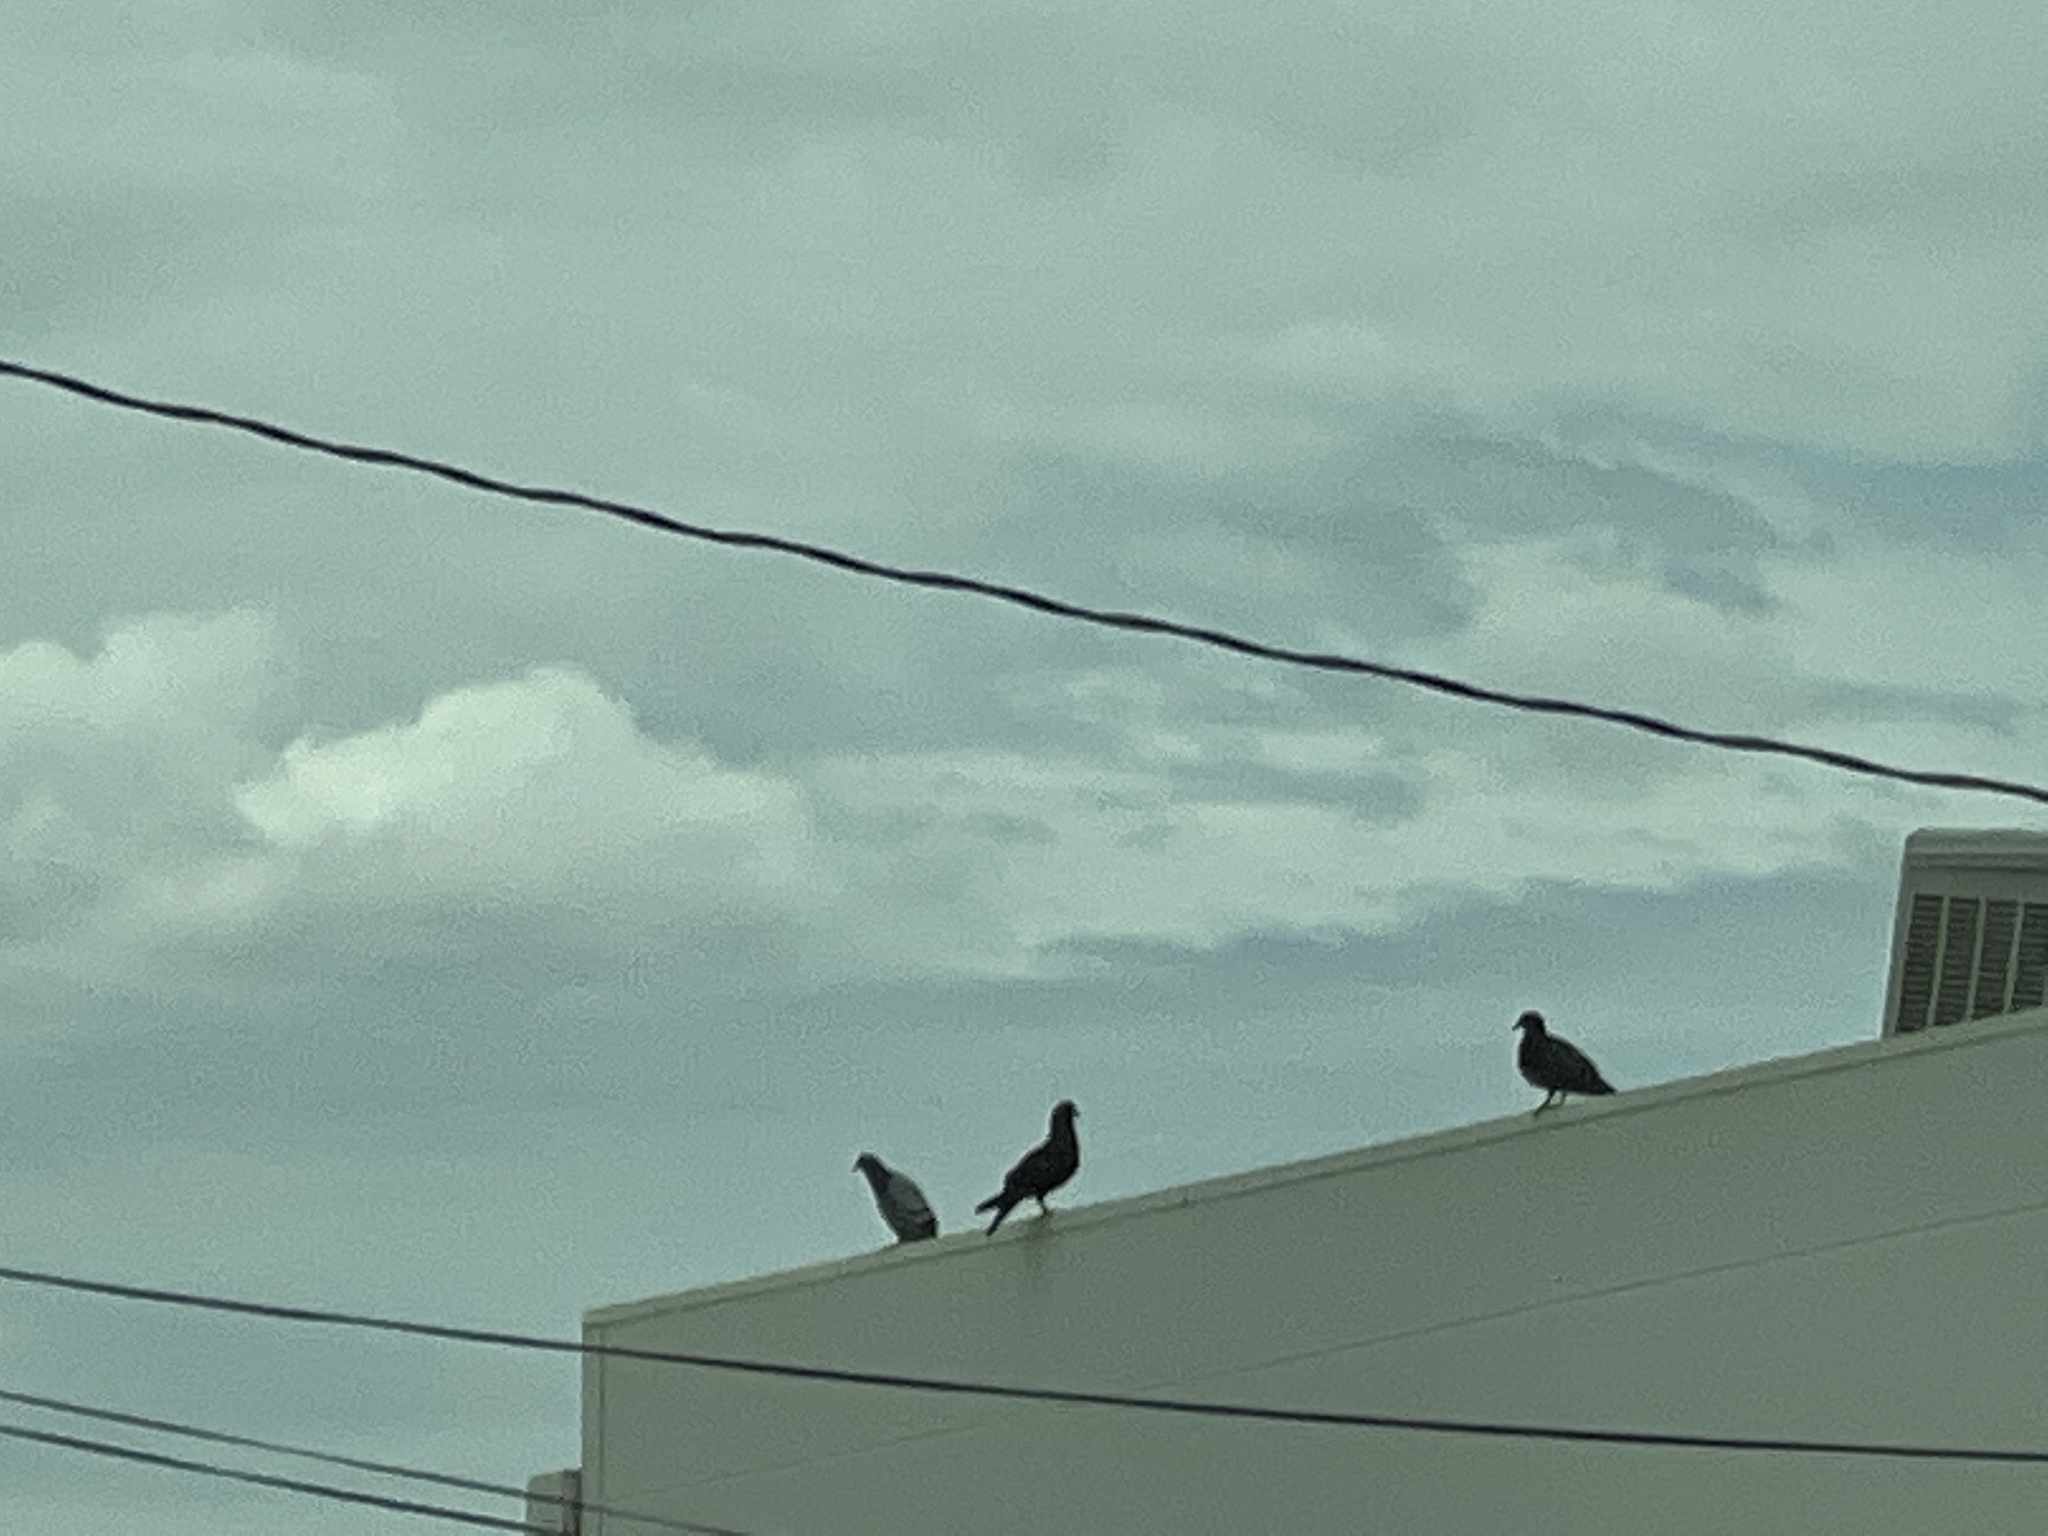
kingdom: Animalia
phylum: Chordata
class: Aves
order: Columbiformes
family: Columbidae
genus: Columba
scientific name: Columba livia
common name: Rock pigeon
